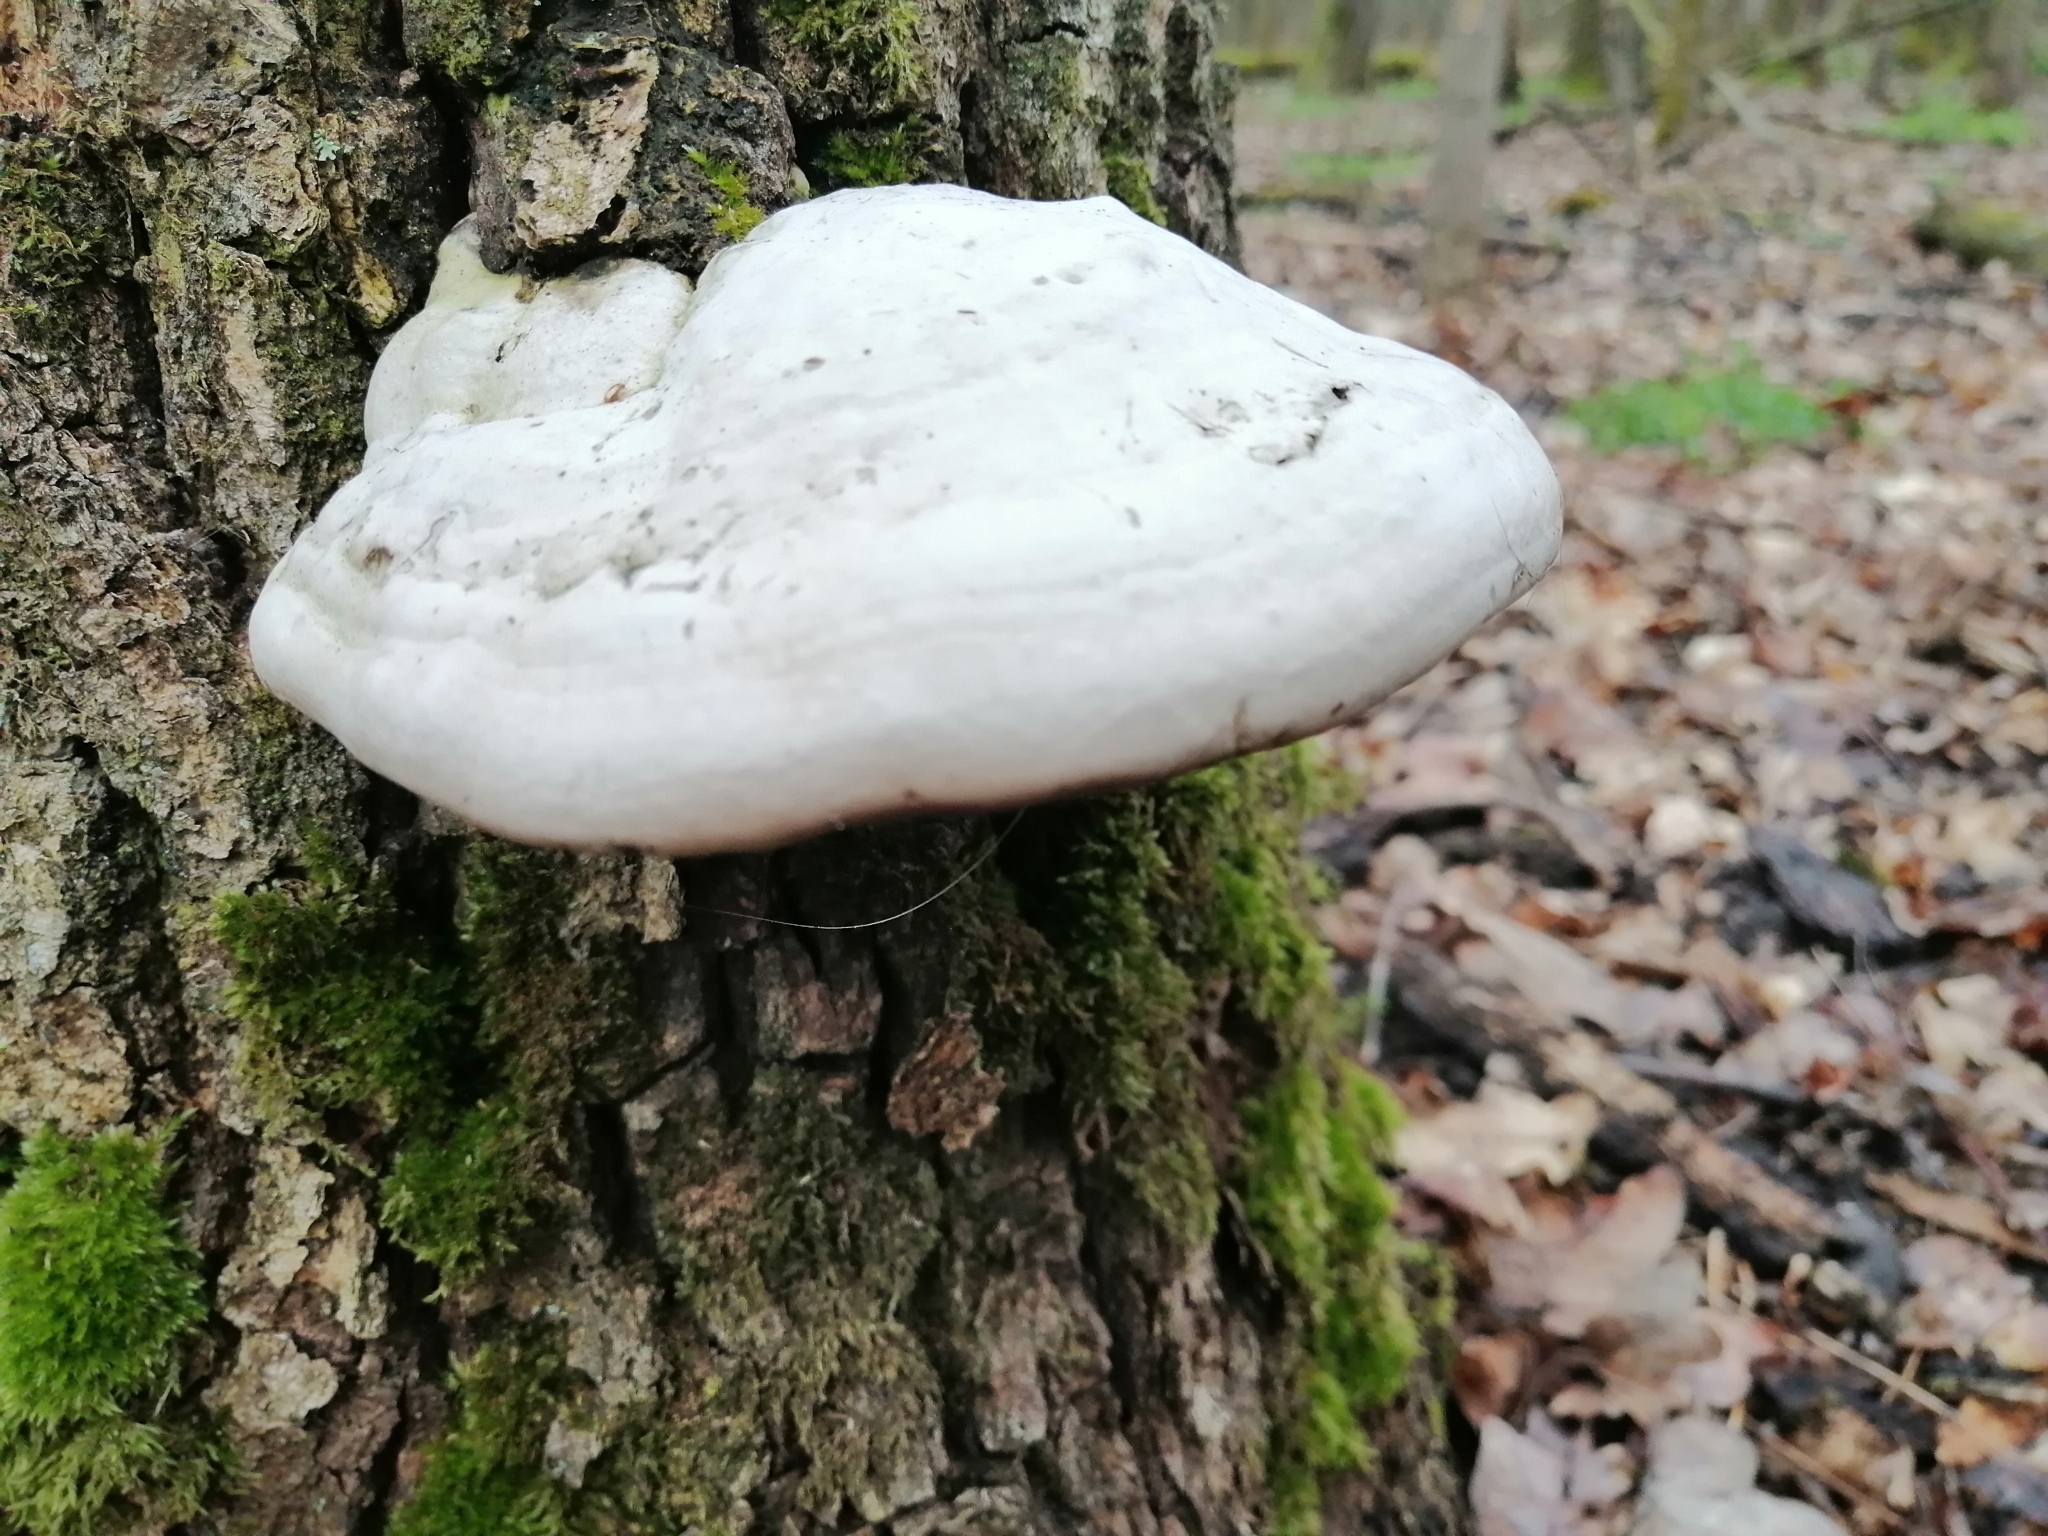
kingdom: Fungi
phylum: Basidiomycota
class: Agaricomycetes
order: Polyporales
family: Polyporaceae
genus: Fomes
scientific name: Fomes fomentarius
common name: Hoof fungus
